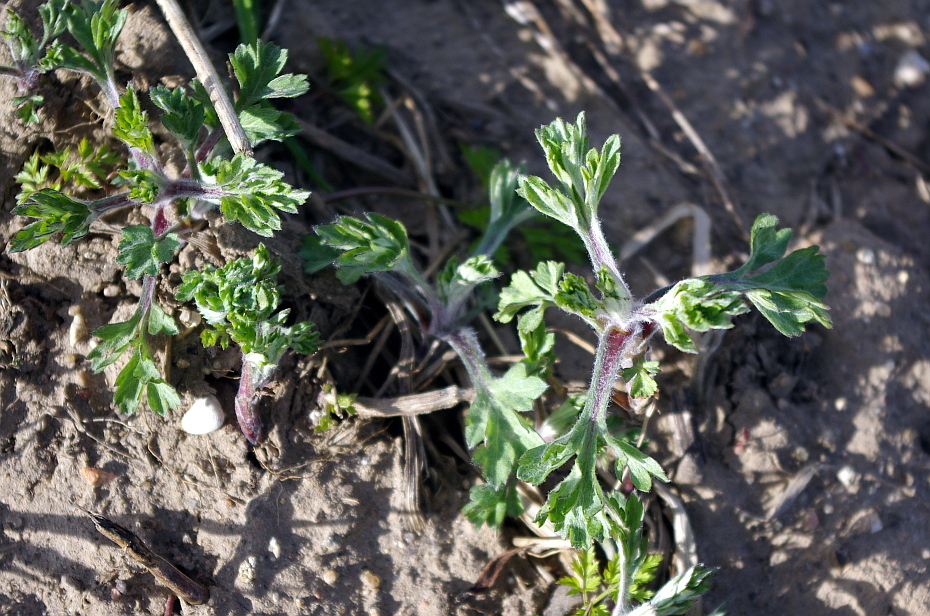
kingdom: Plantae
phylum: Tracheophyta
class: Magnoliopsida
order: Asterales
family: Asteraceae
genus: Artemisia
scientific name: Artemisia vulgaris
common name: Mugwort
